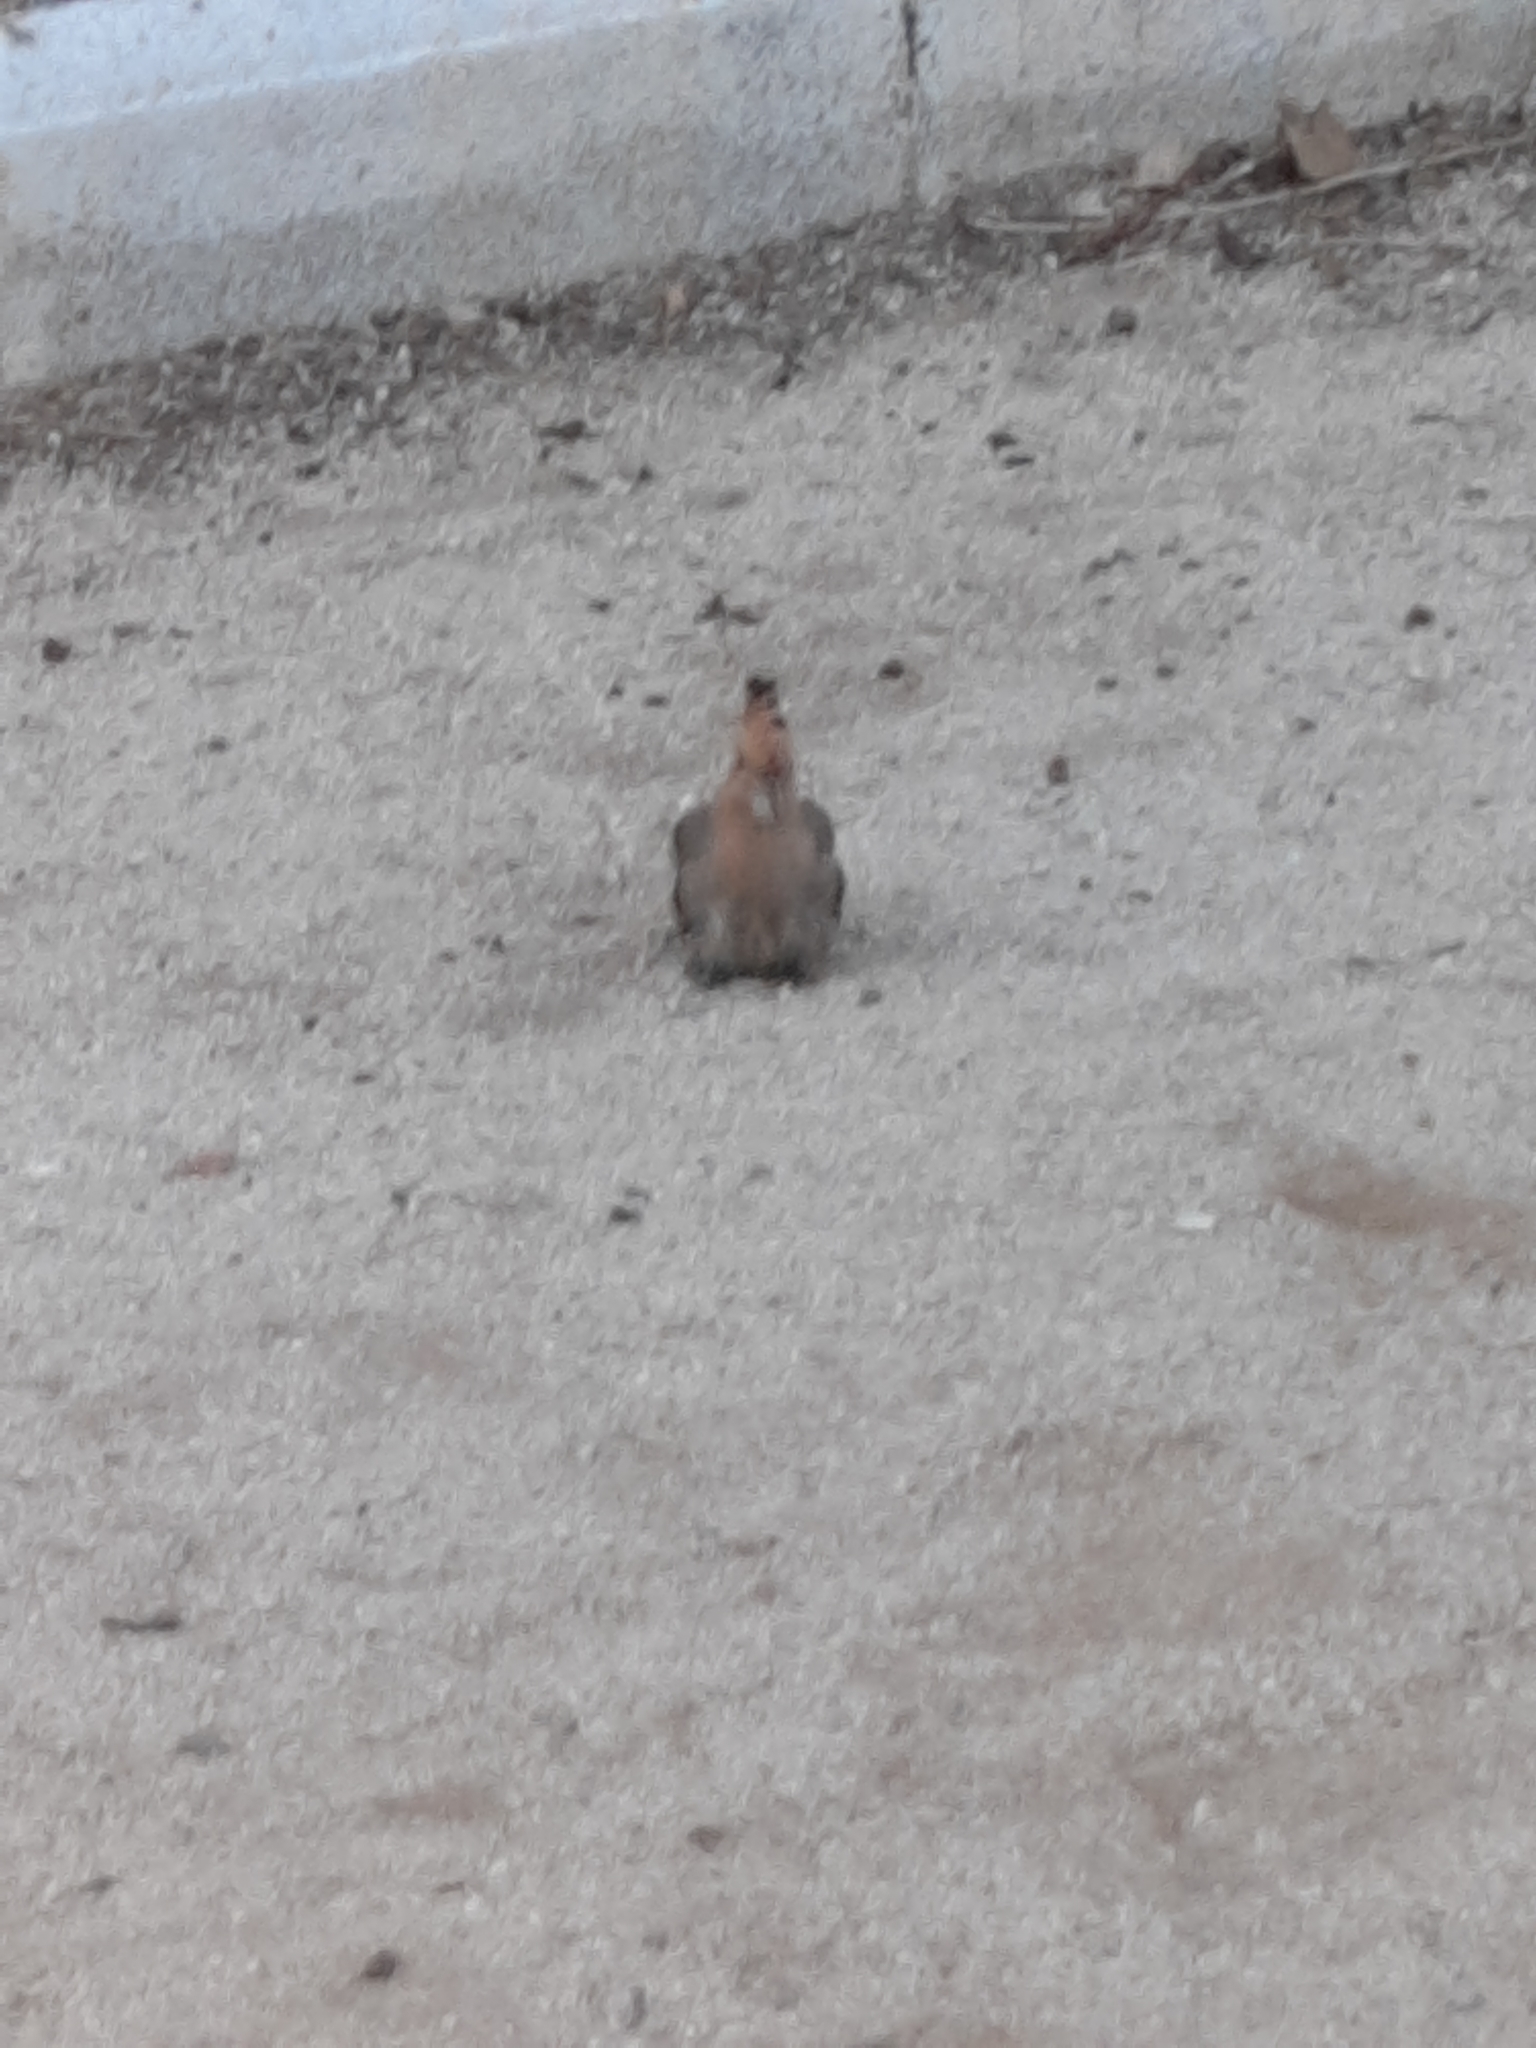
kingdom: Animalia
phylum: Chordata
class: Aves
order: Bucerotiformes
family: Upupidae
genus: Upupa
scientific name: Upupa epops
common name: Eurasian hoopoe
